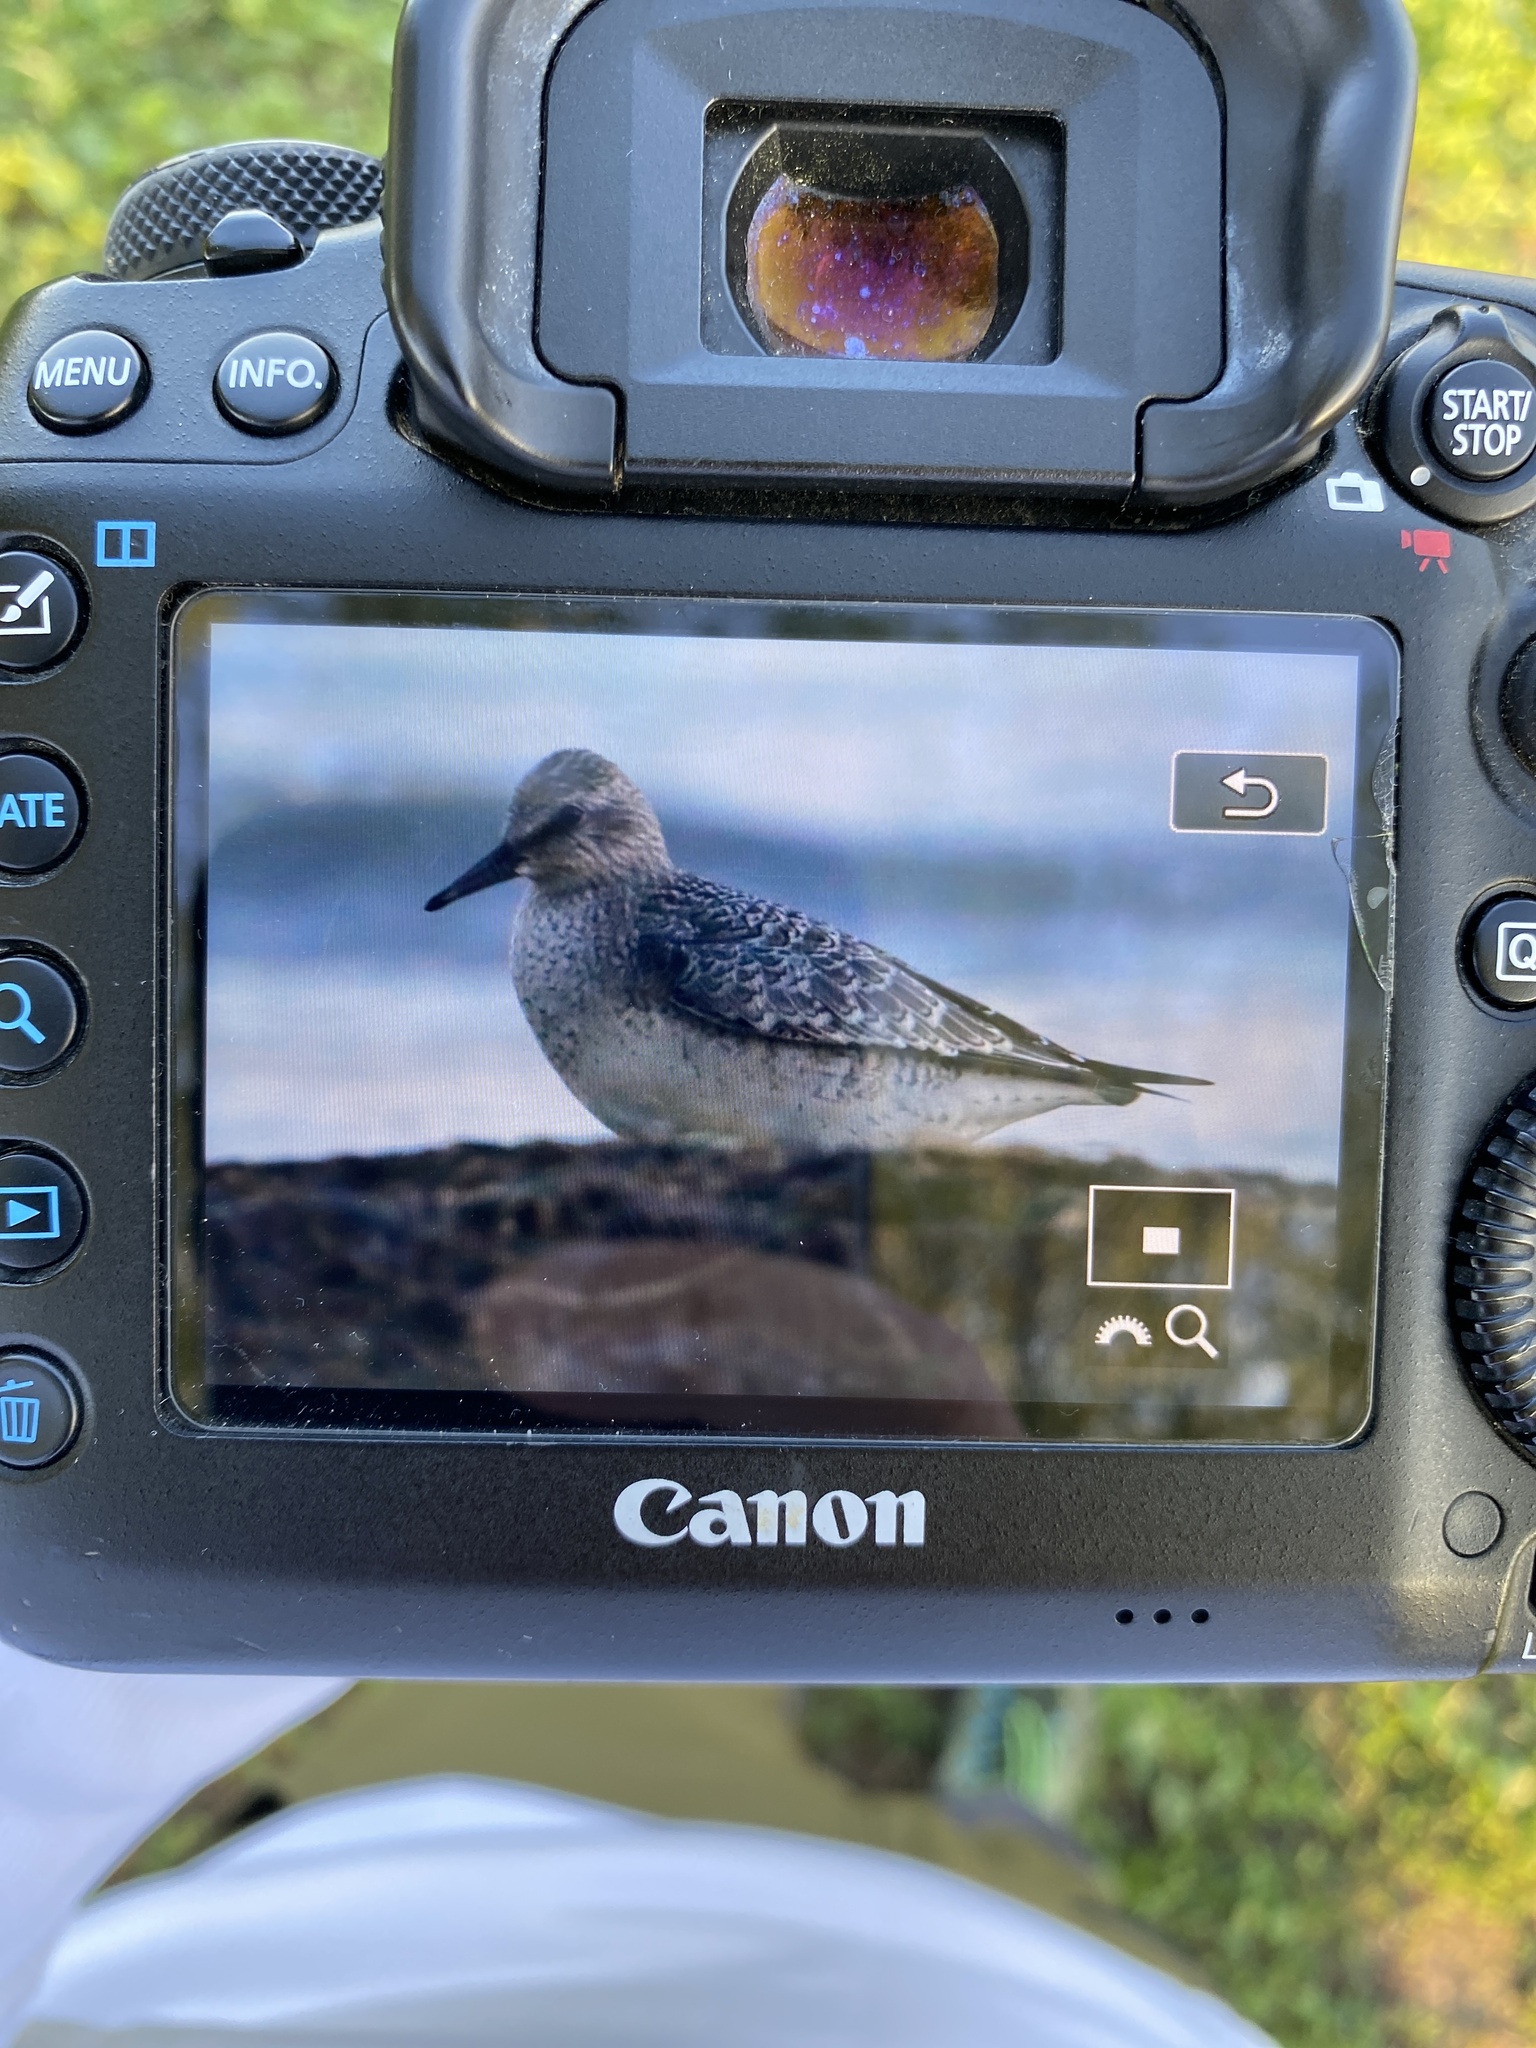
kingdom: Animalia
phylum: Chordata
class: Aves
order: Charadriiformes
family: Scolopacidae
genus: Calidris
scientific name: Calidris canutus
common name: Red knot
